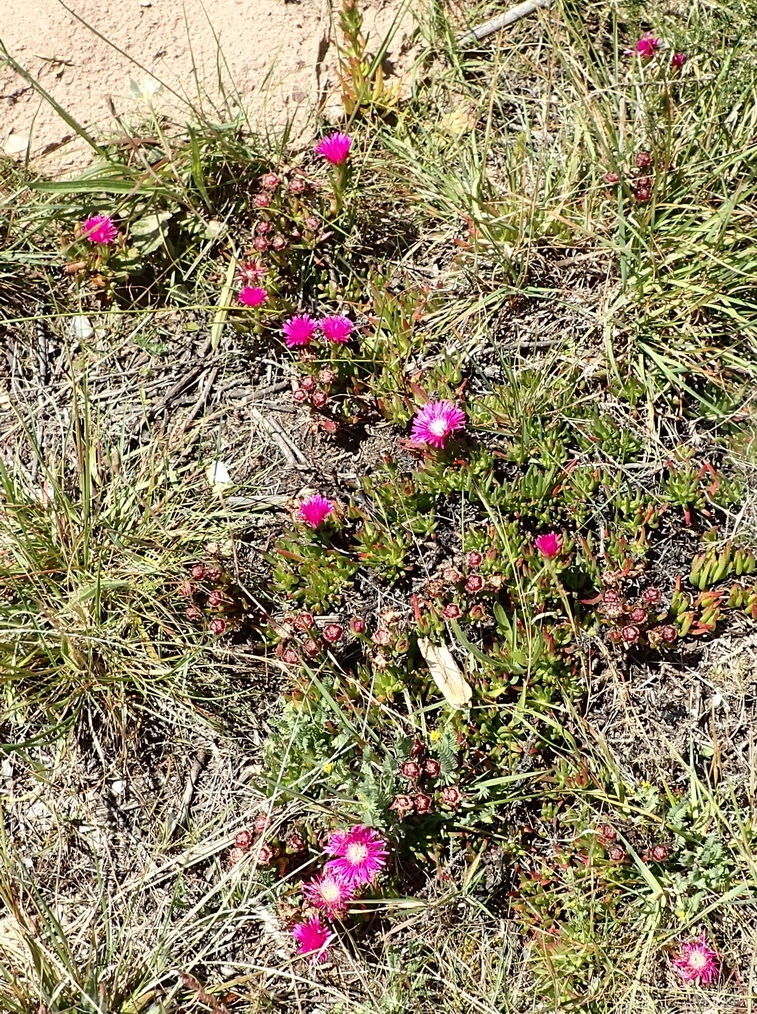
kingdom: Plantae
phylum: Tracheophyta
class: Magnoliopsida
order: Caryophyllales
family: Aizoaceae
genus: Ruschia
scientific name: Ruschia duthiae
